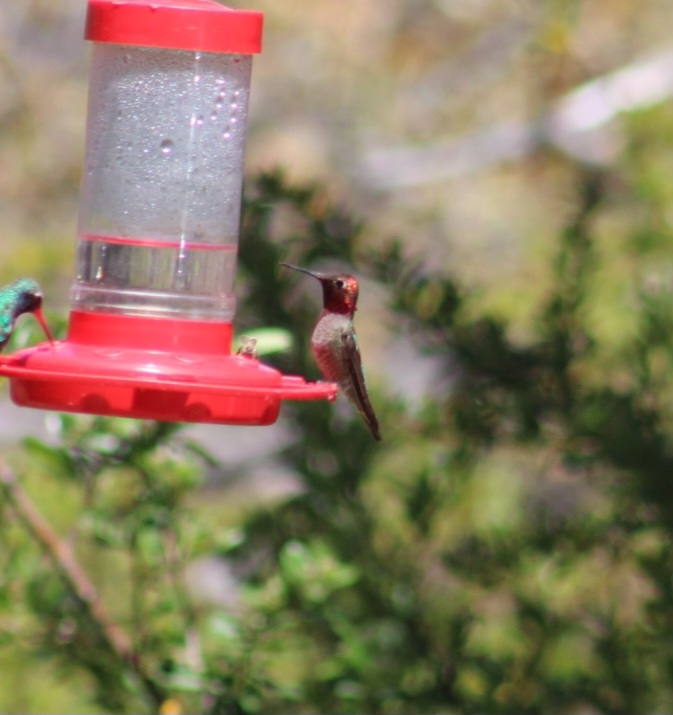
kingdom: Animalia
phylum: Chordata
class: Aves
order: Apodiformes
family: Trochilidae
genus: Calypte
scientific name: Calypte anna
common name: Anna's hummingbird
